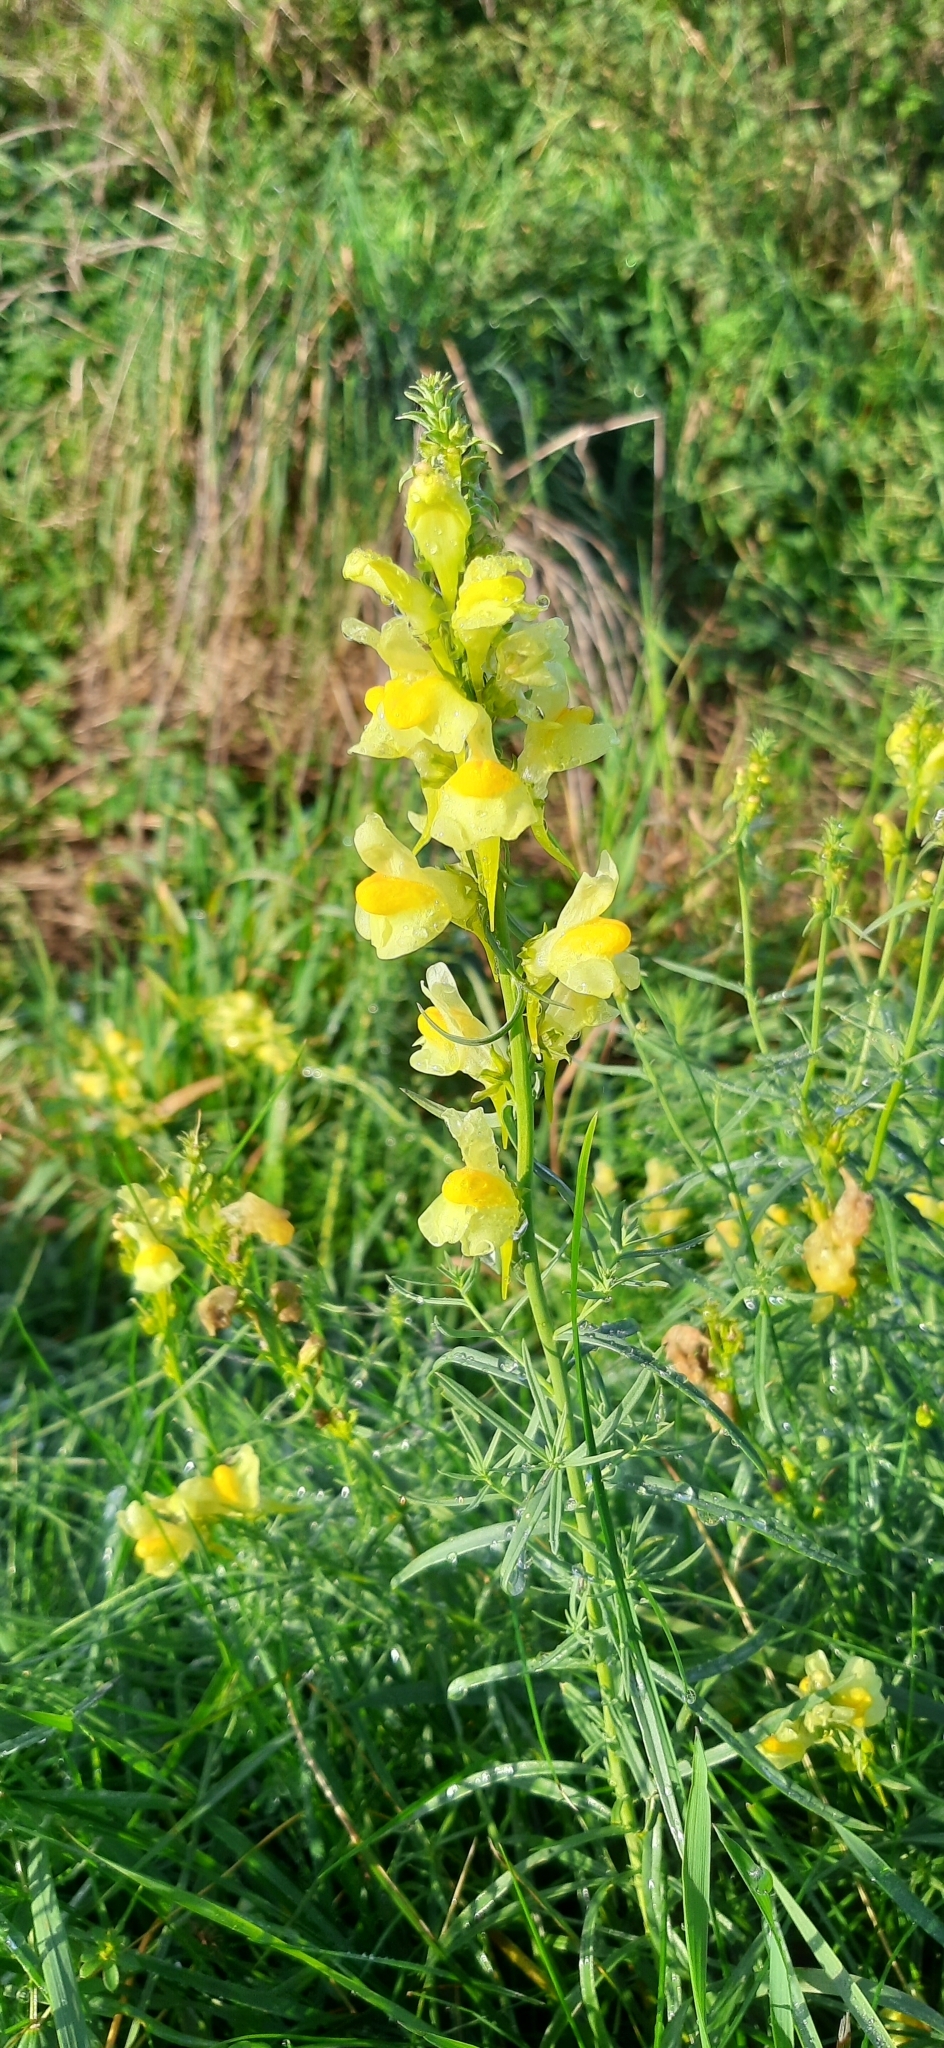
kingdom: Plantae
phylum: Tracheophyta
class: Magnoliopsida
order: Lamiales
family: Plantaginaceae
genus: Linaria
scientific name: Linaria vulgaris
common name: Butter and eggs
